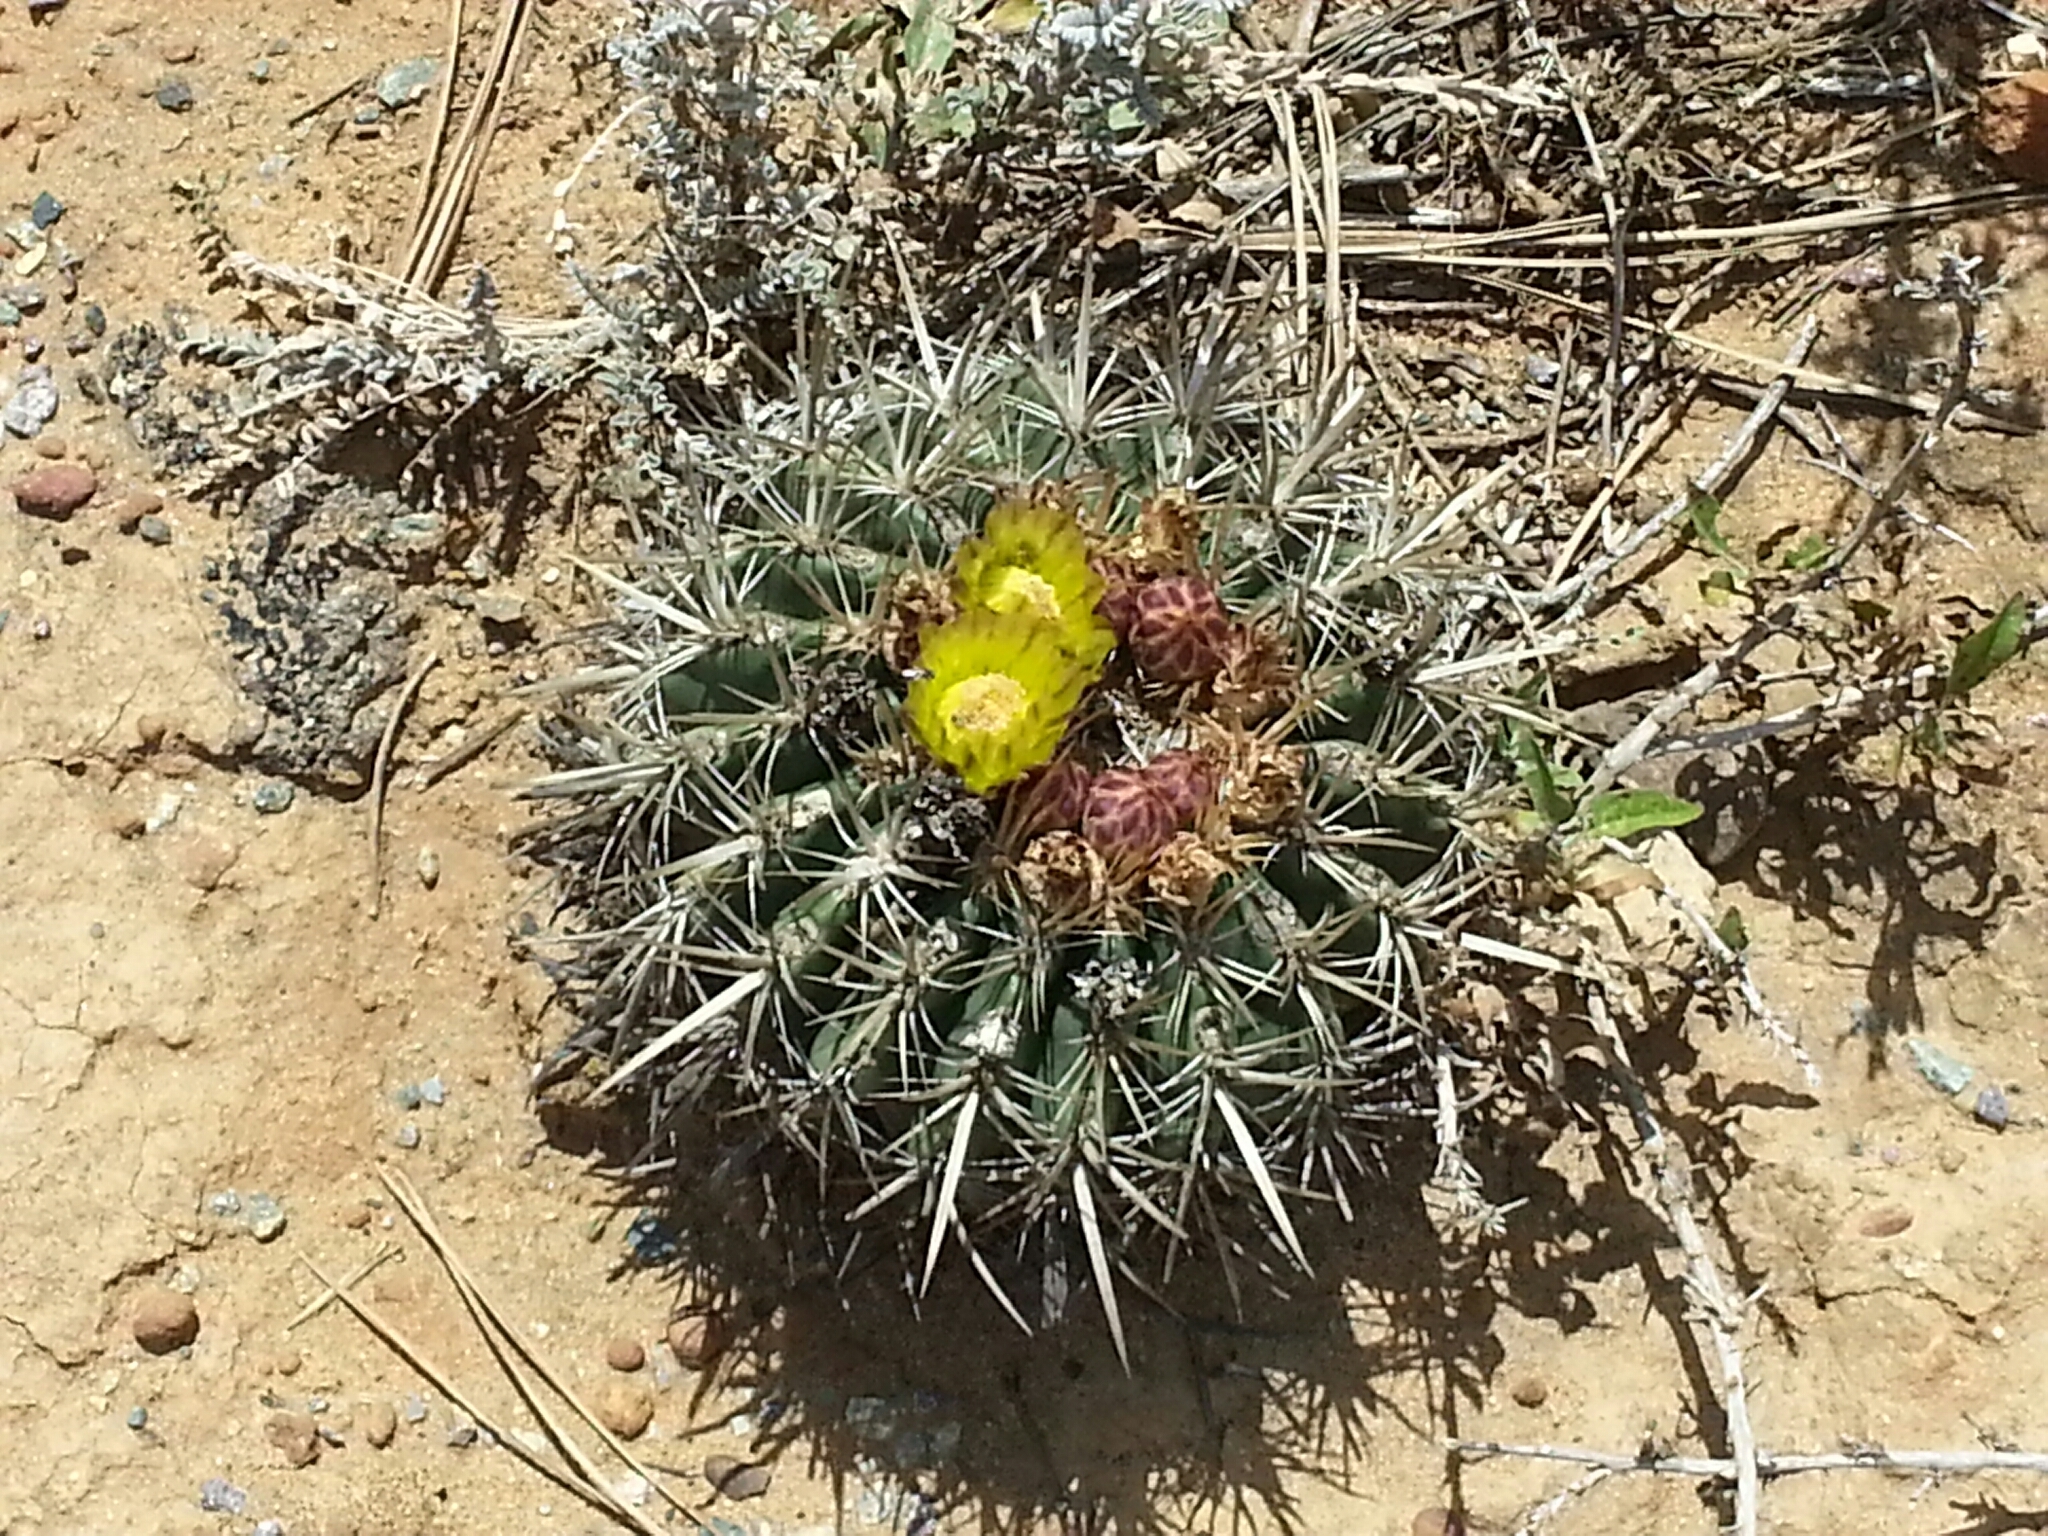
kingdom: Plantae
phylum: Tracheophyta
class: Magnoliopsida
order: Caryophyllales
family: Cactaceae
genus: Ferocactus
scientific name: Ferocactus viridescens
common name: San diego barrel cactus
